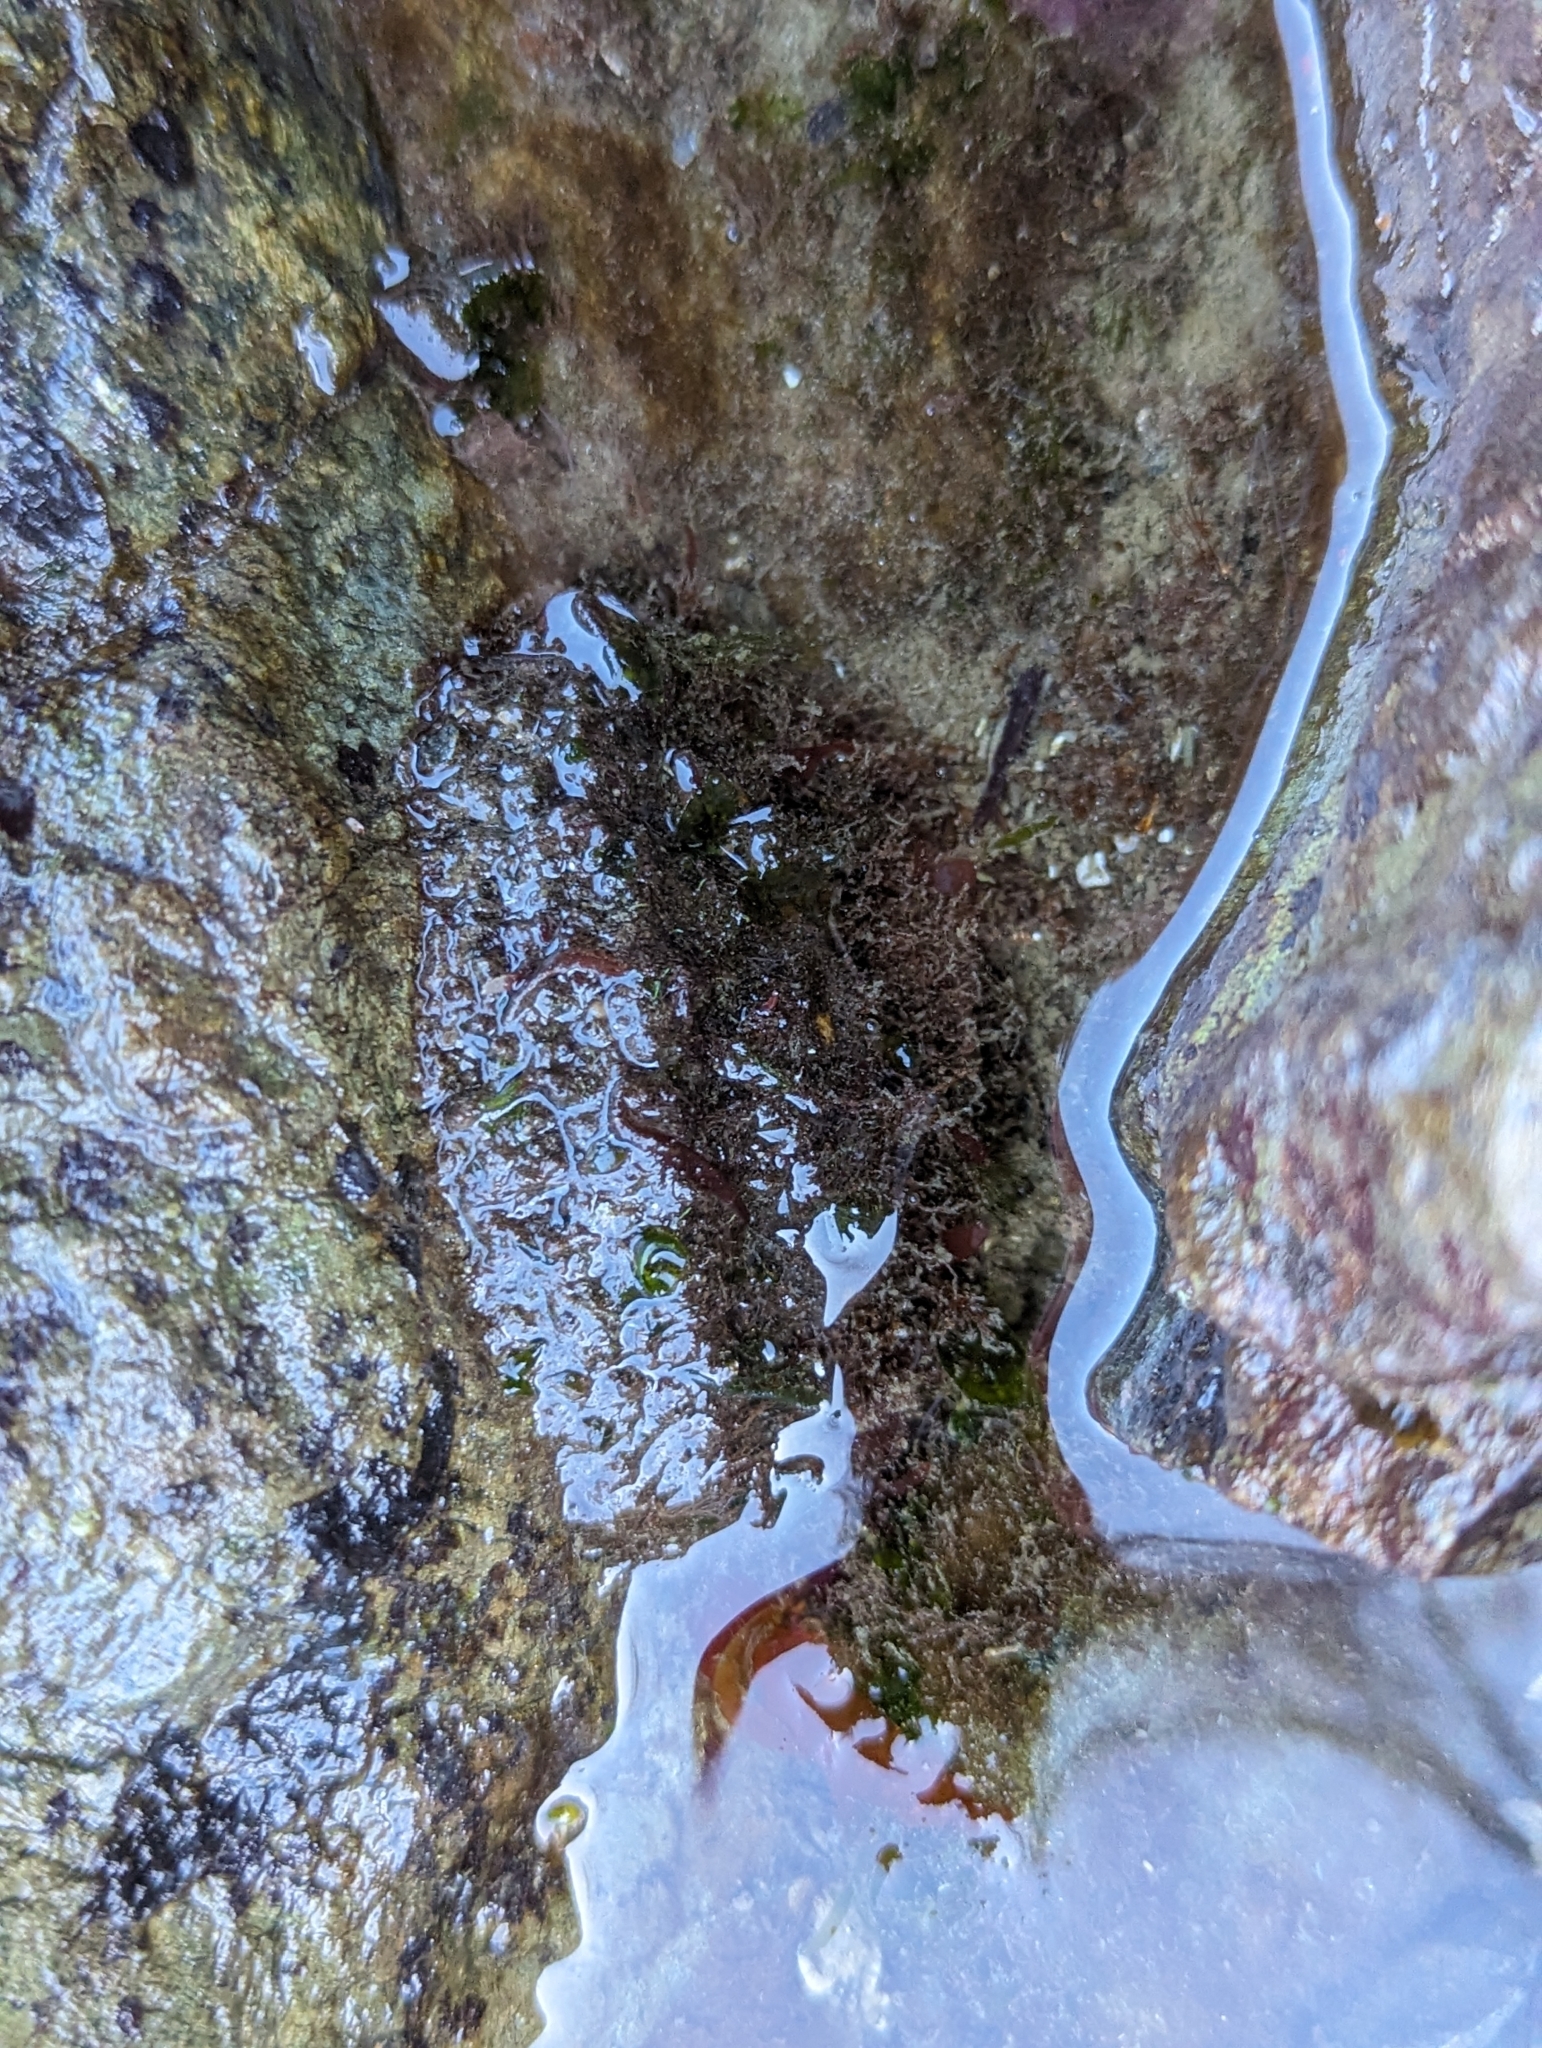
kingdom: Animalia
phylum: Mollusca
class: Polyplacophora
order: Chitonida
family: Mopaliidae
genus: Mopalia
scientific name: Mopalia muscosa
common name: Mossy chiton
